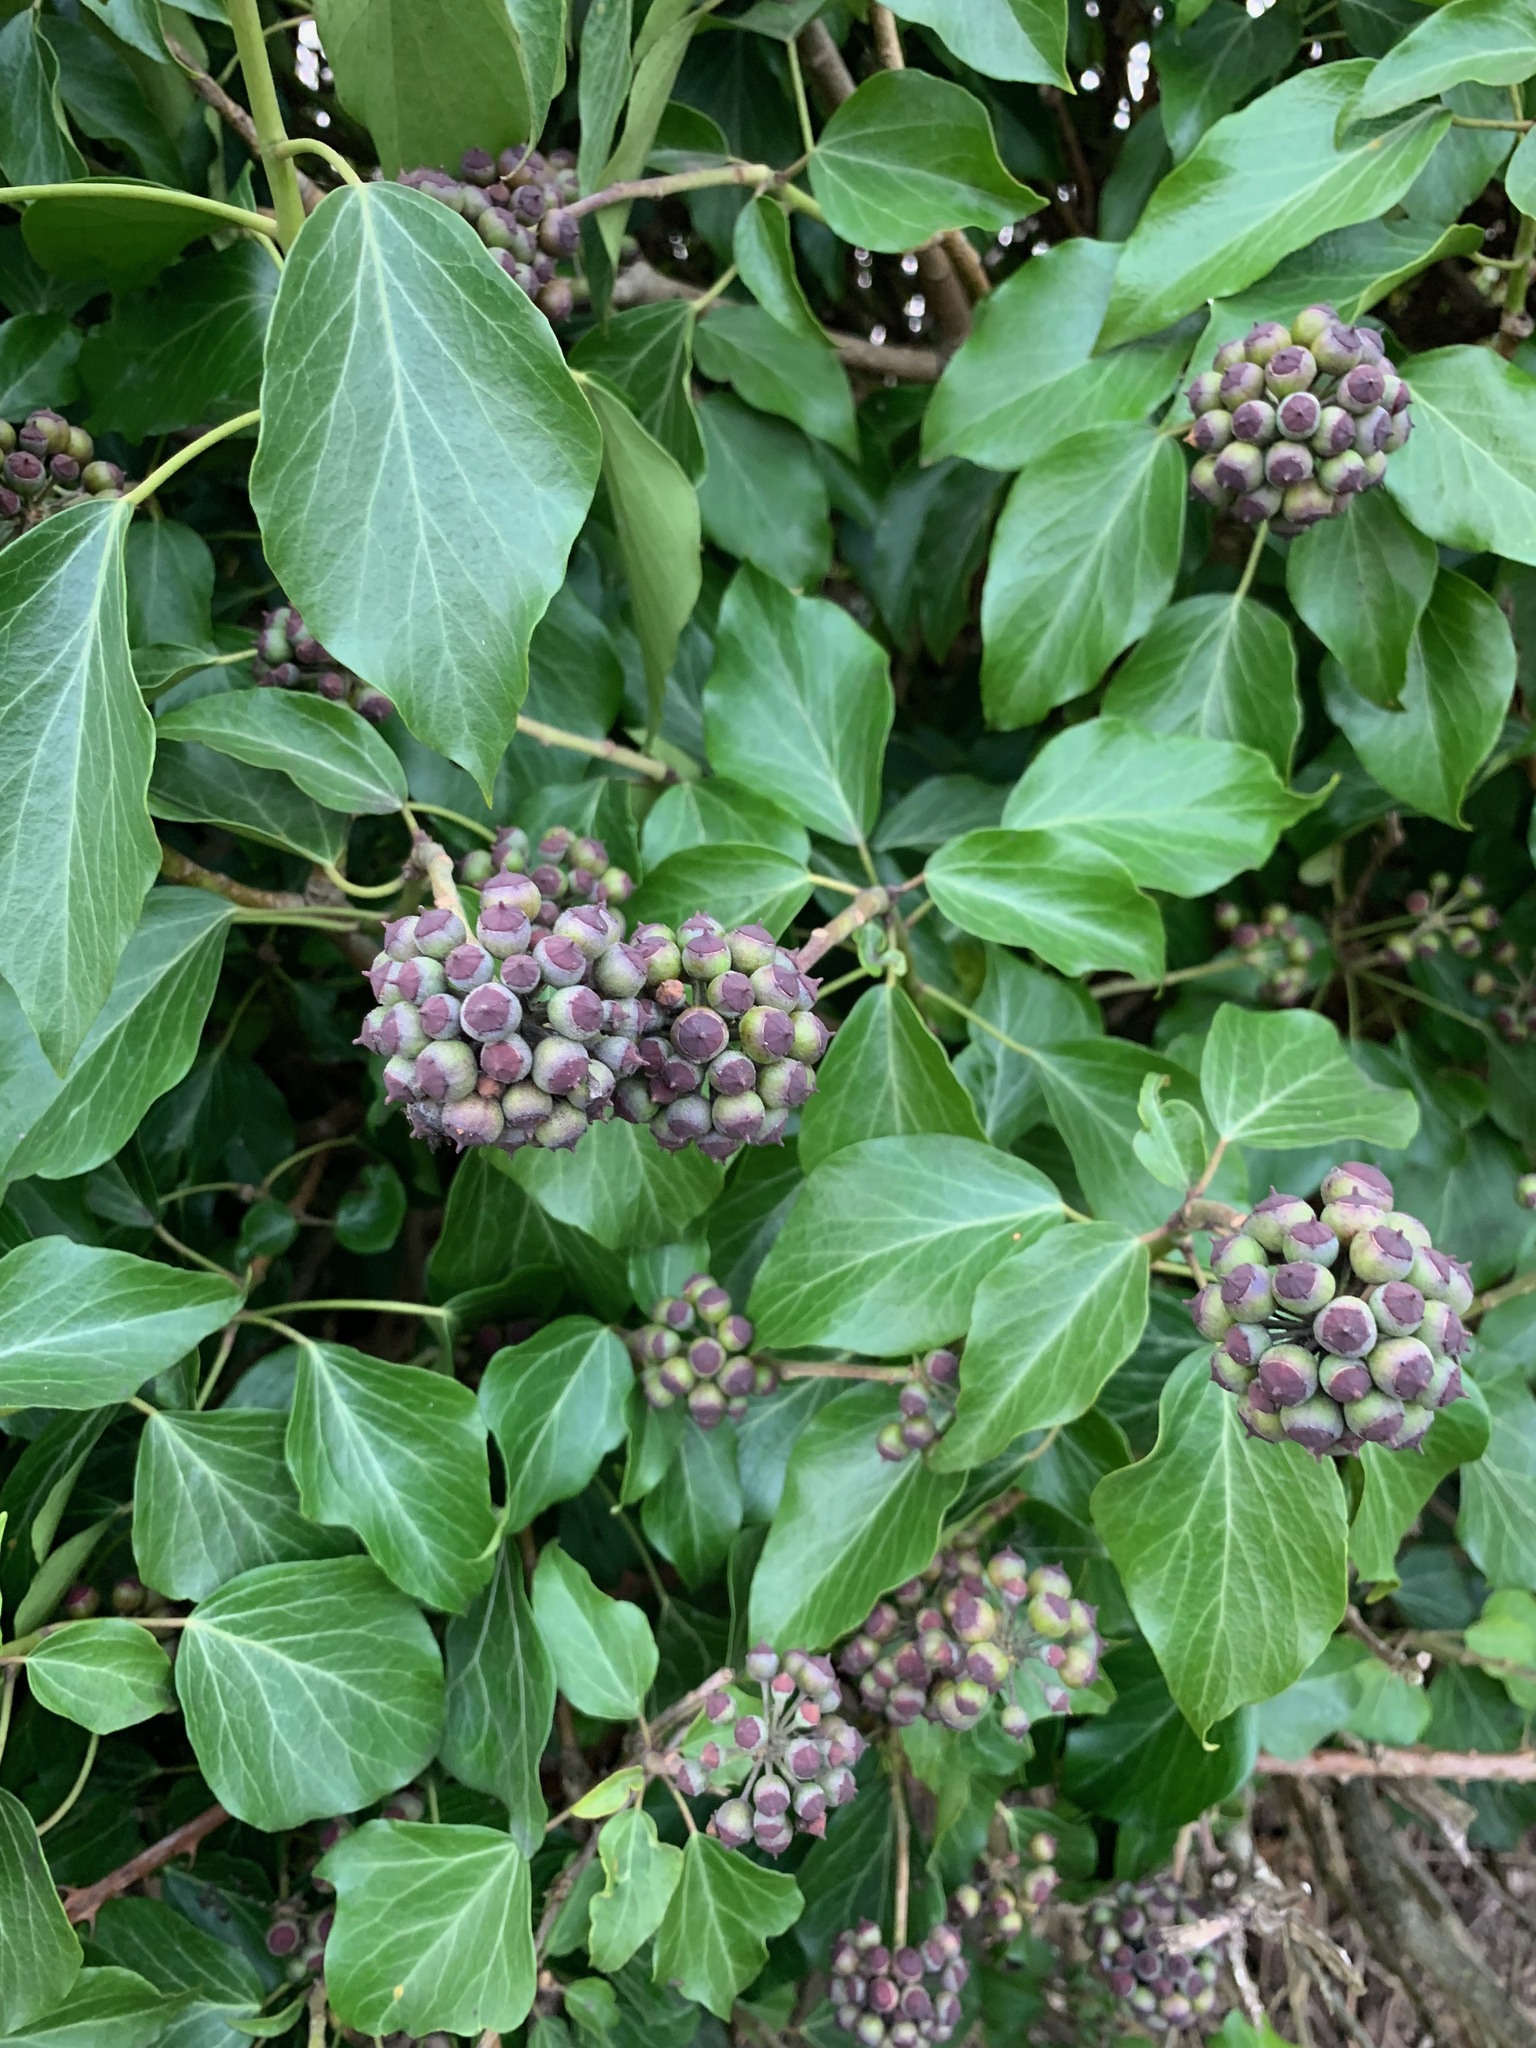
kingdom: Plantae
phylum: Tracheophyta
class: Magnoliopsida
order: Apiales
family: Araliaceae
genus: Hedera
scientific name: Hedera helix
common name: Ivy
